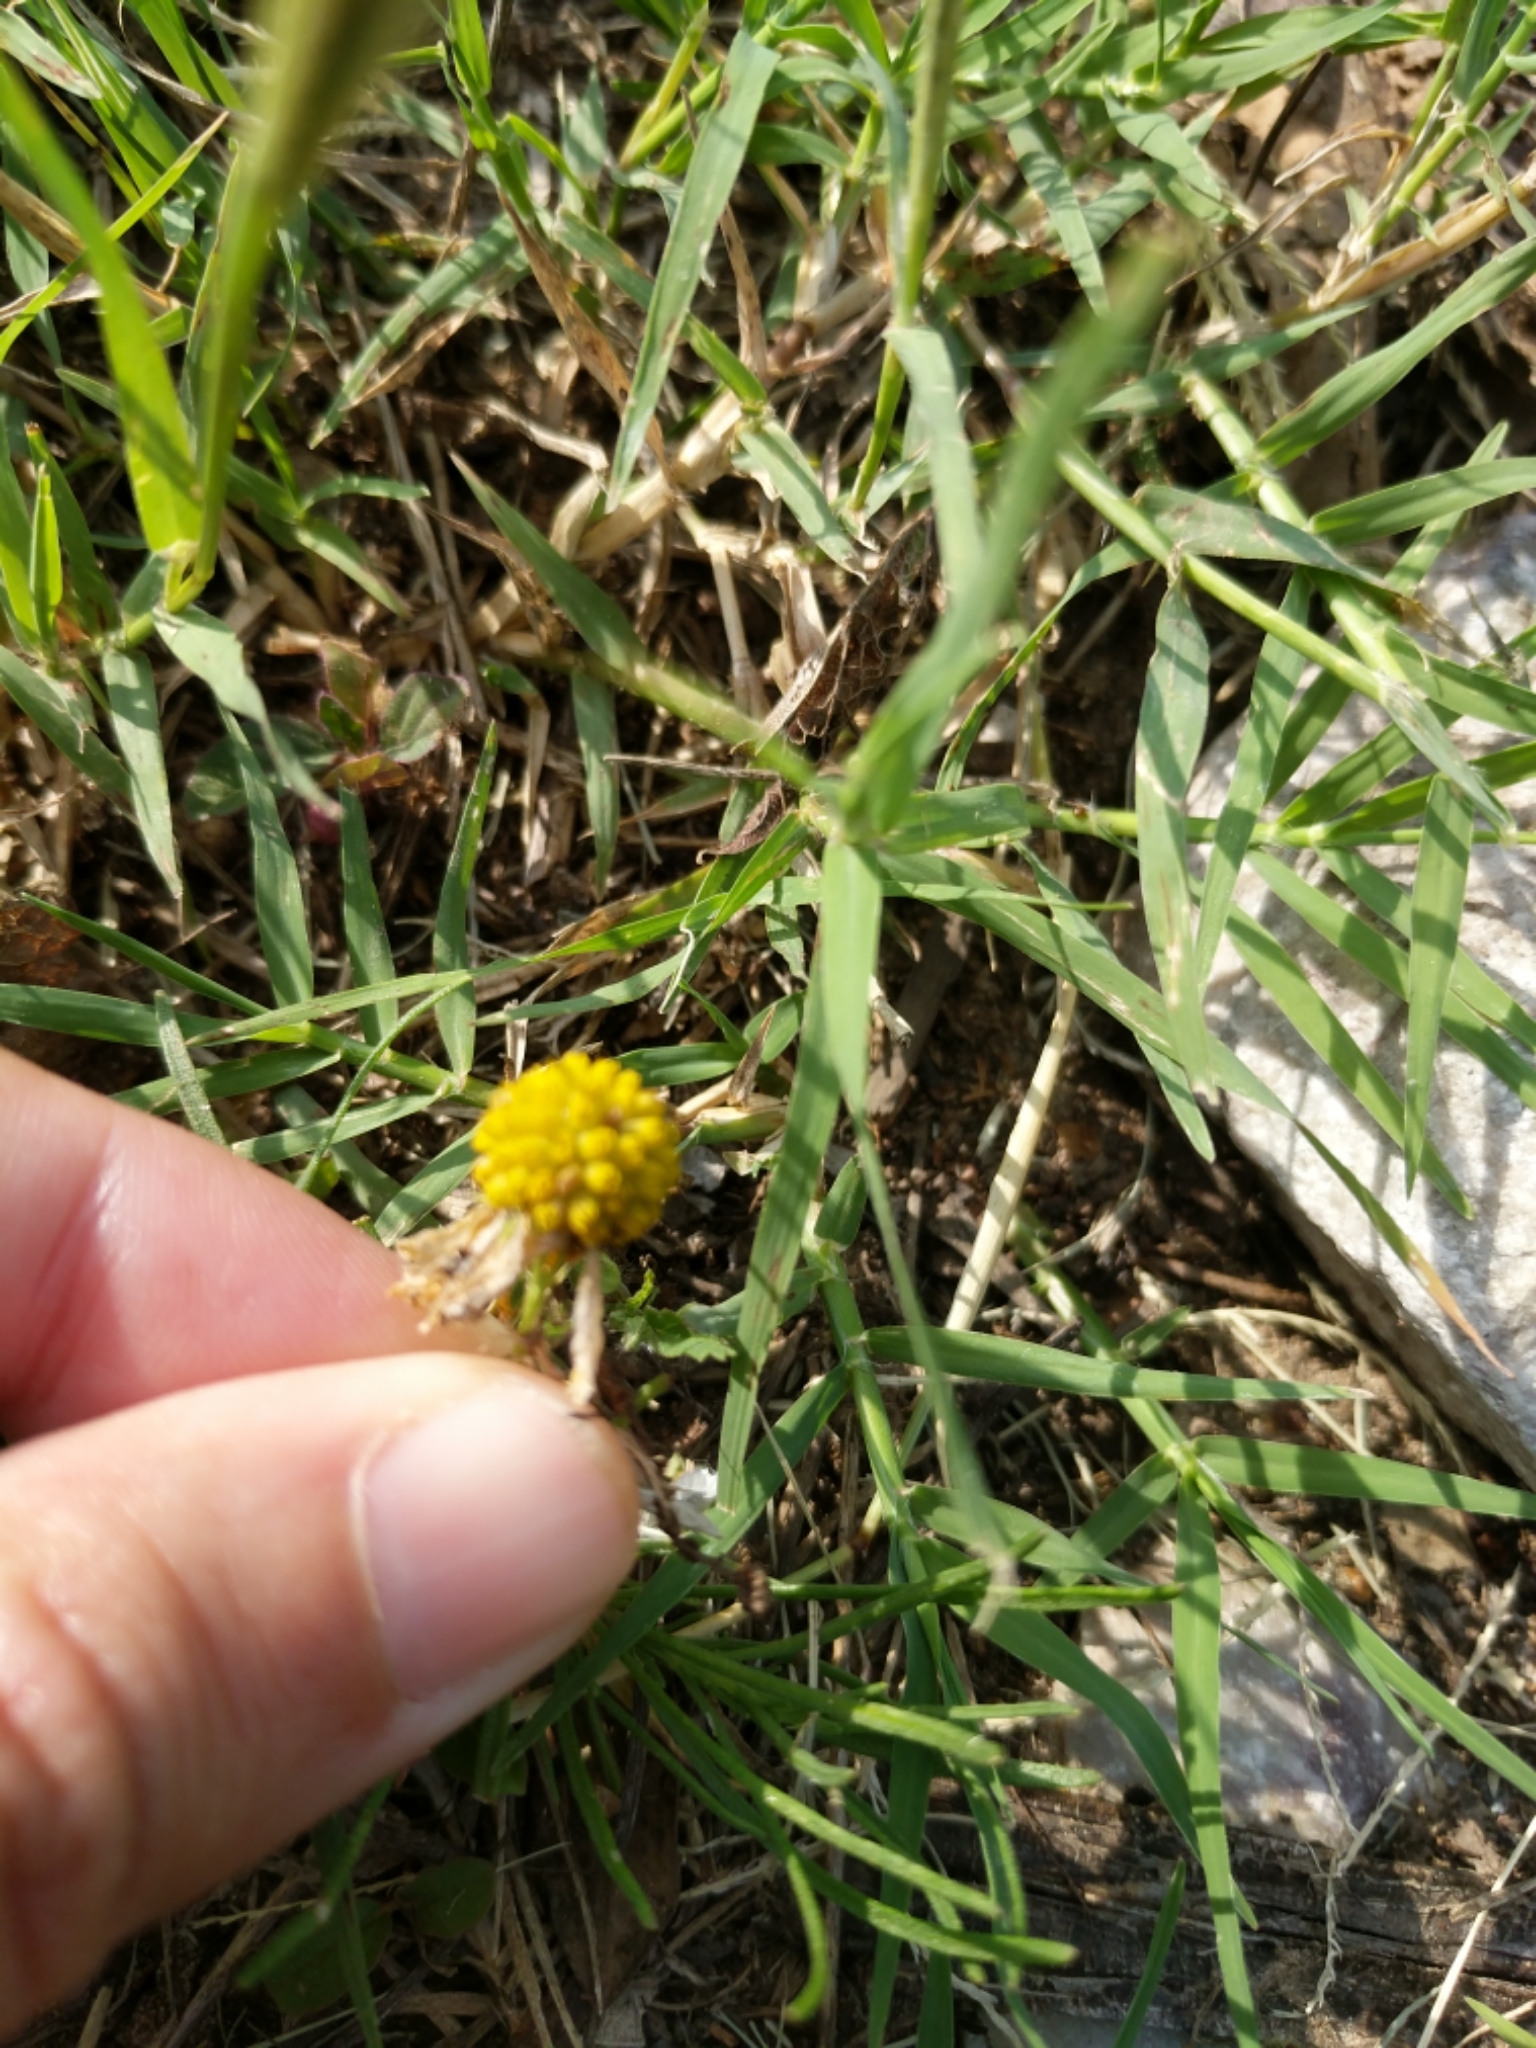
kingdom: Plantae
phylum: Tracheophyta
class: Magnoliopsida
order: Asterales
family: Asteraceae
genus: Helenium
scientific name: Helenium amarum
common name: Bitter sneezeweed
